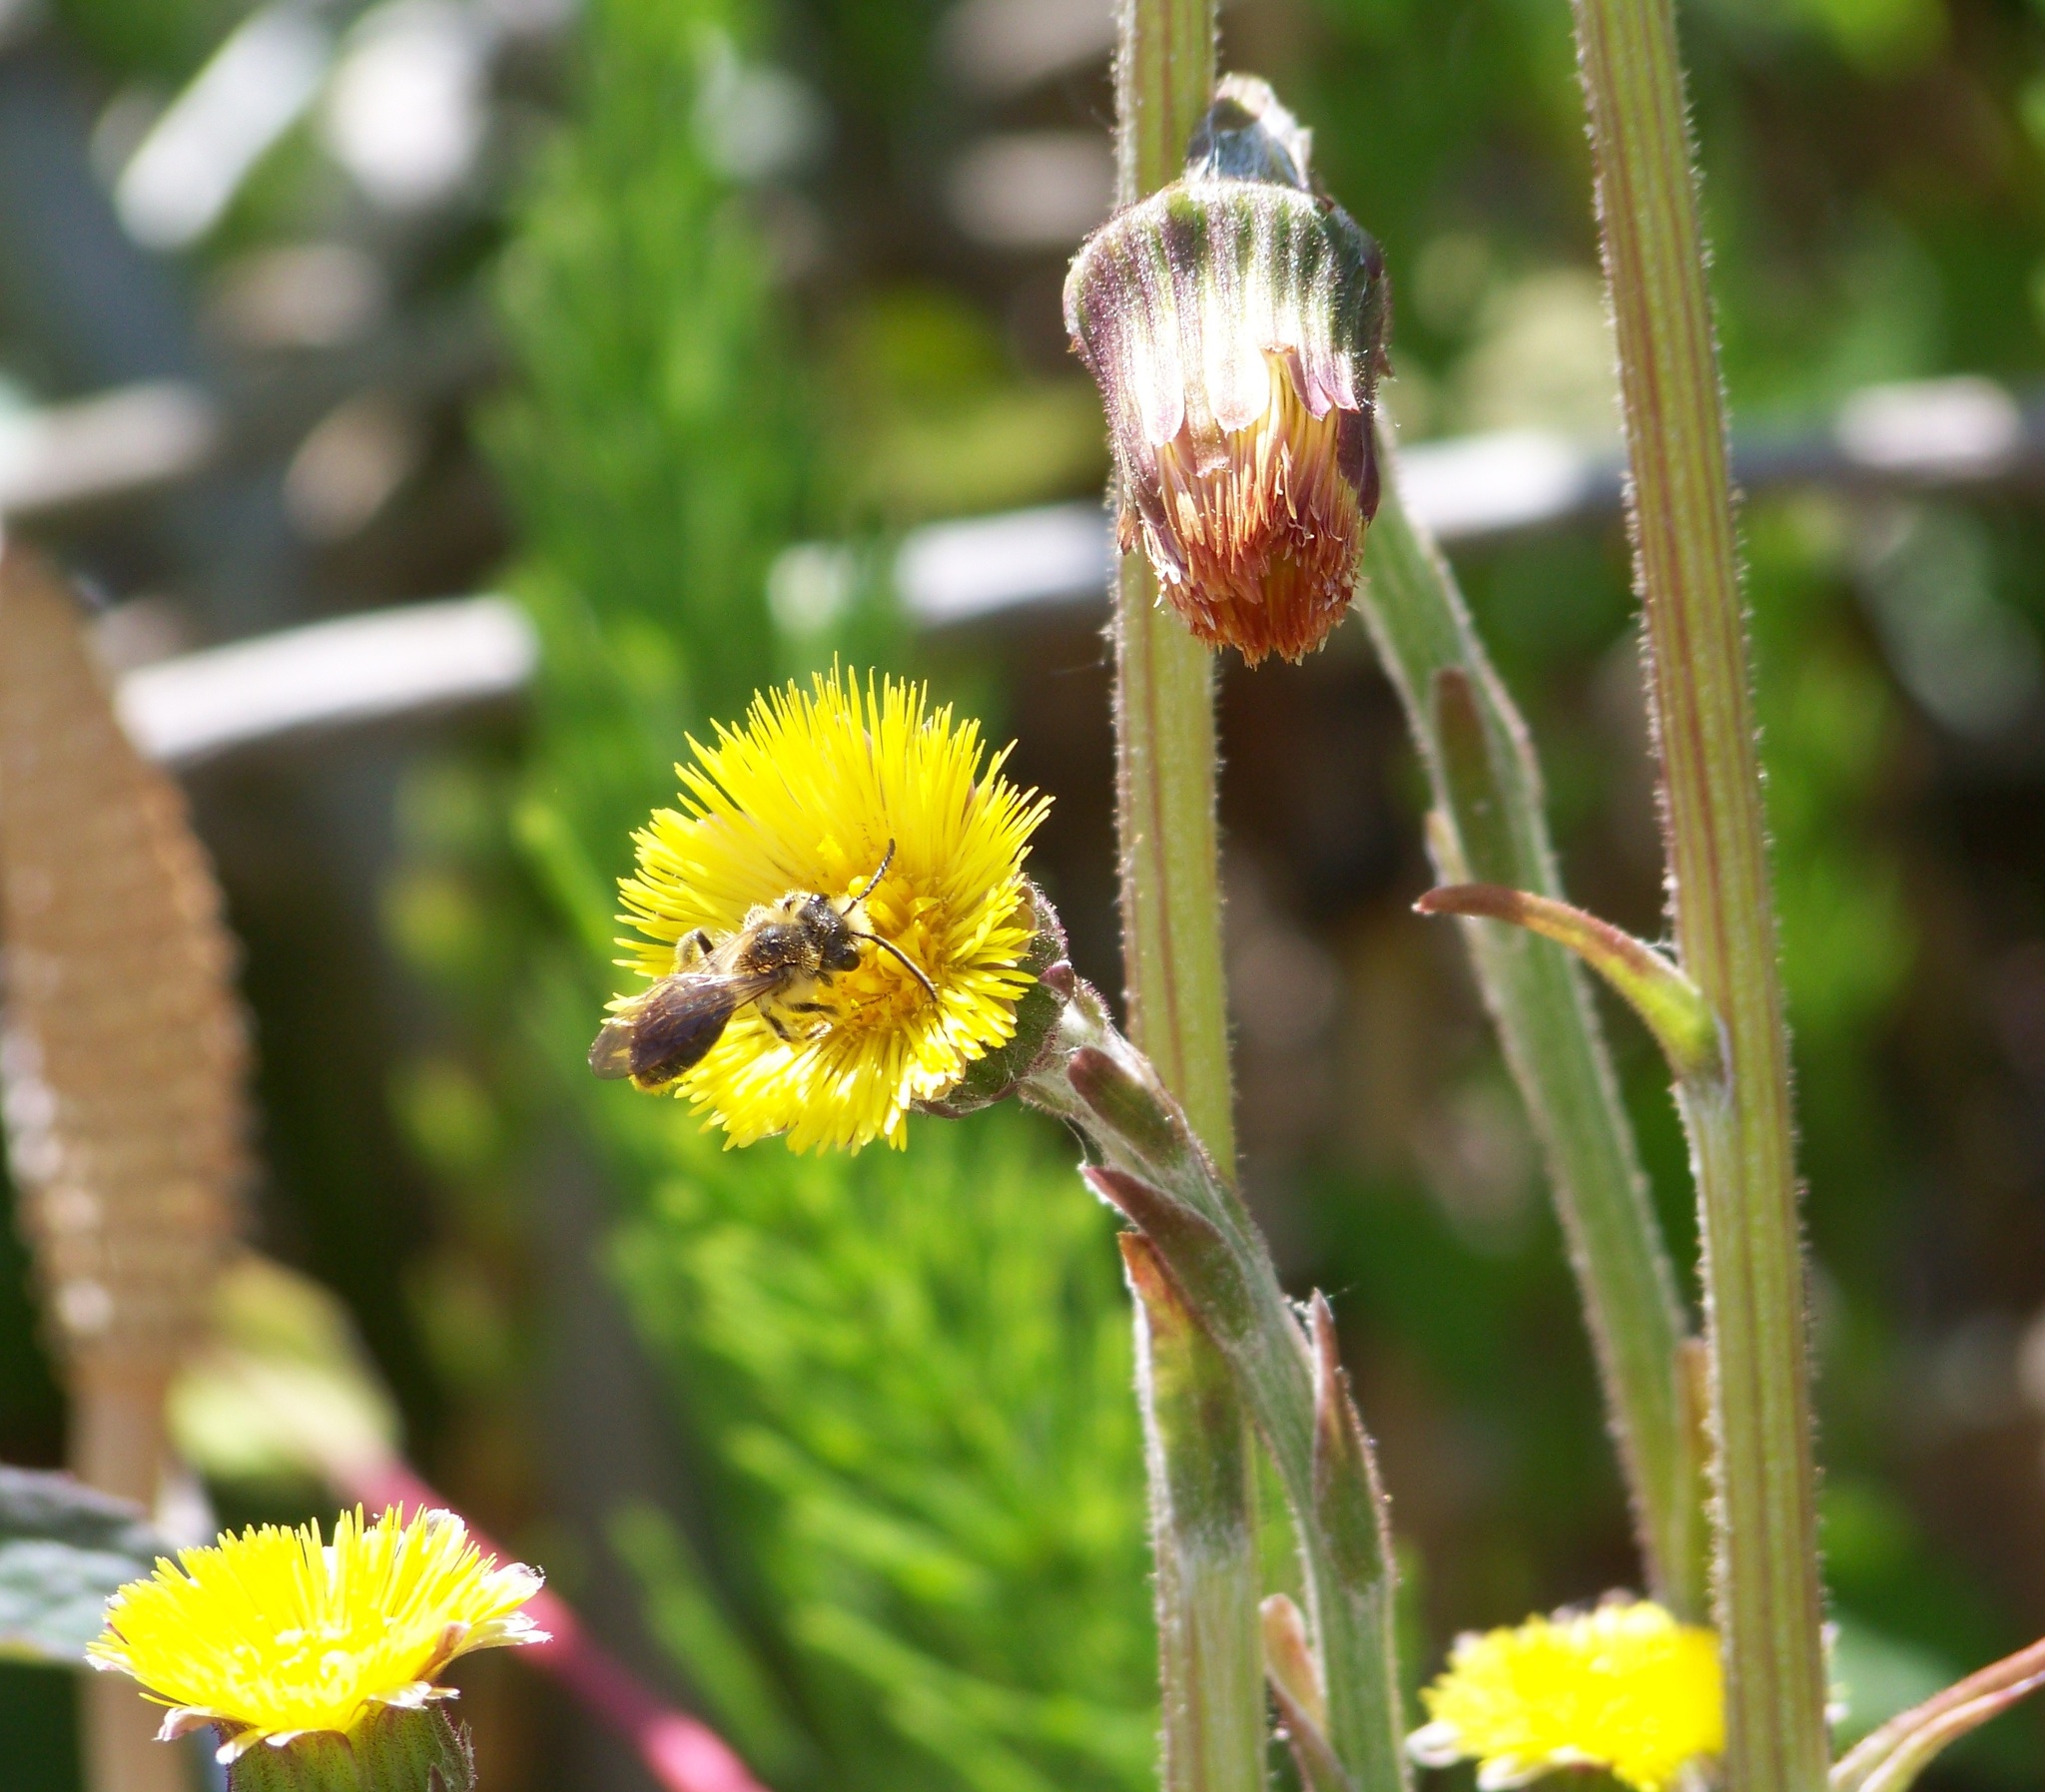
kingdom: Plantae
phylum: Tracheophyta
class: Magnoliopsida
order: Asterales
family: Asteraceae
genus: Tussilago
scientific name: Tussilago farfara
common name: Coltsfoot
